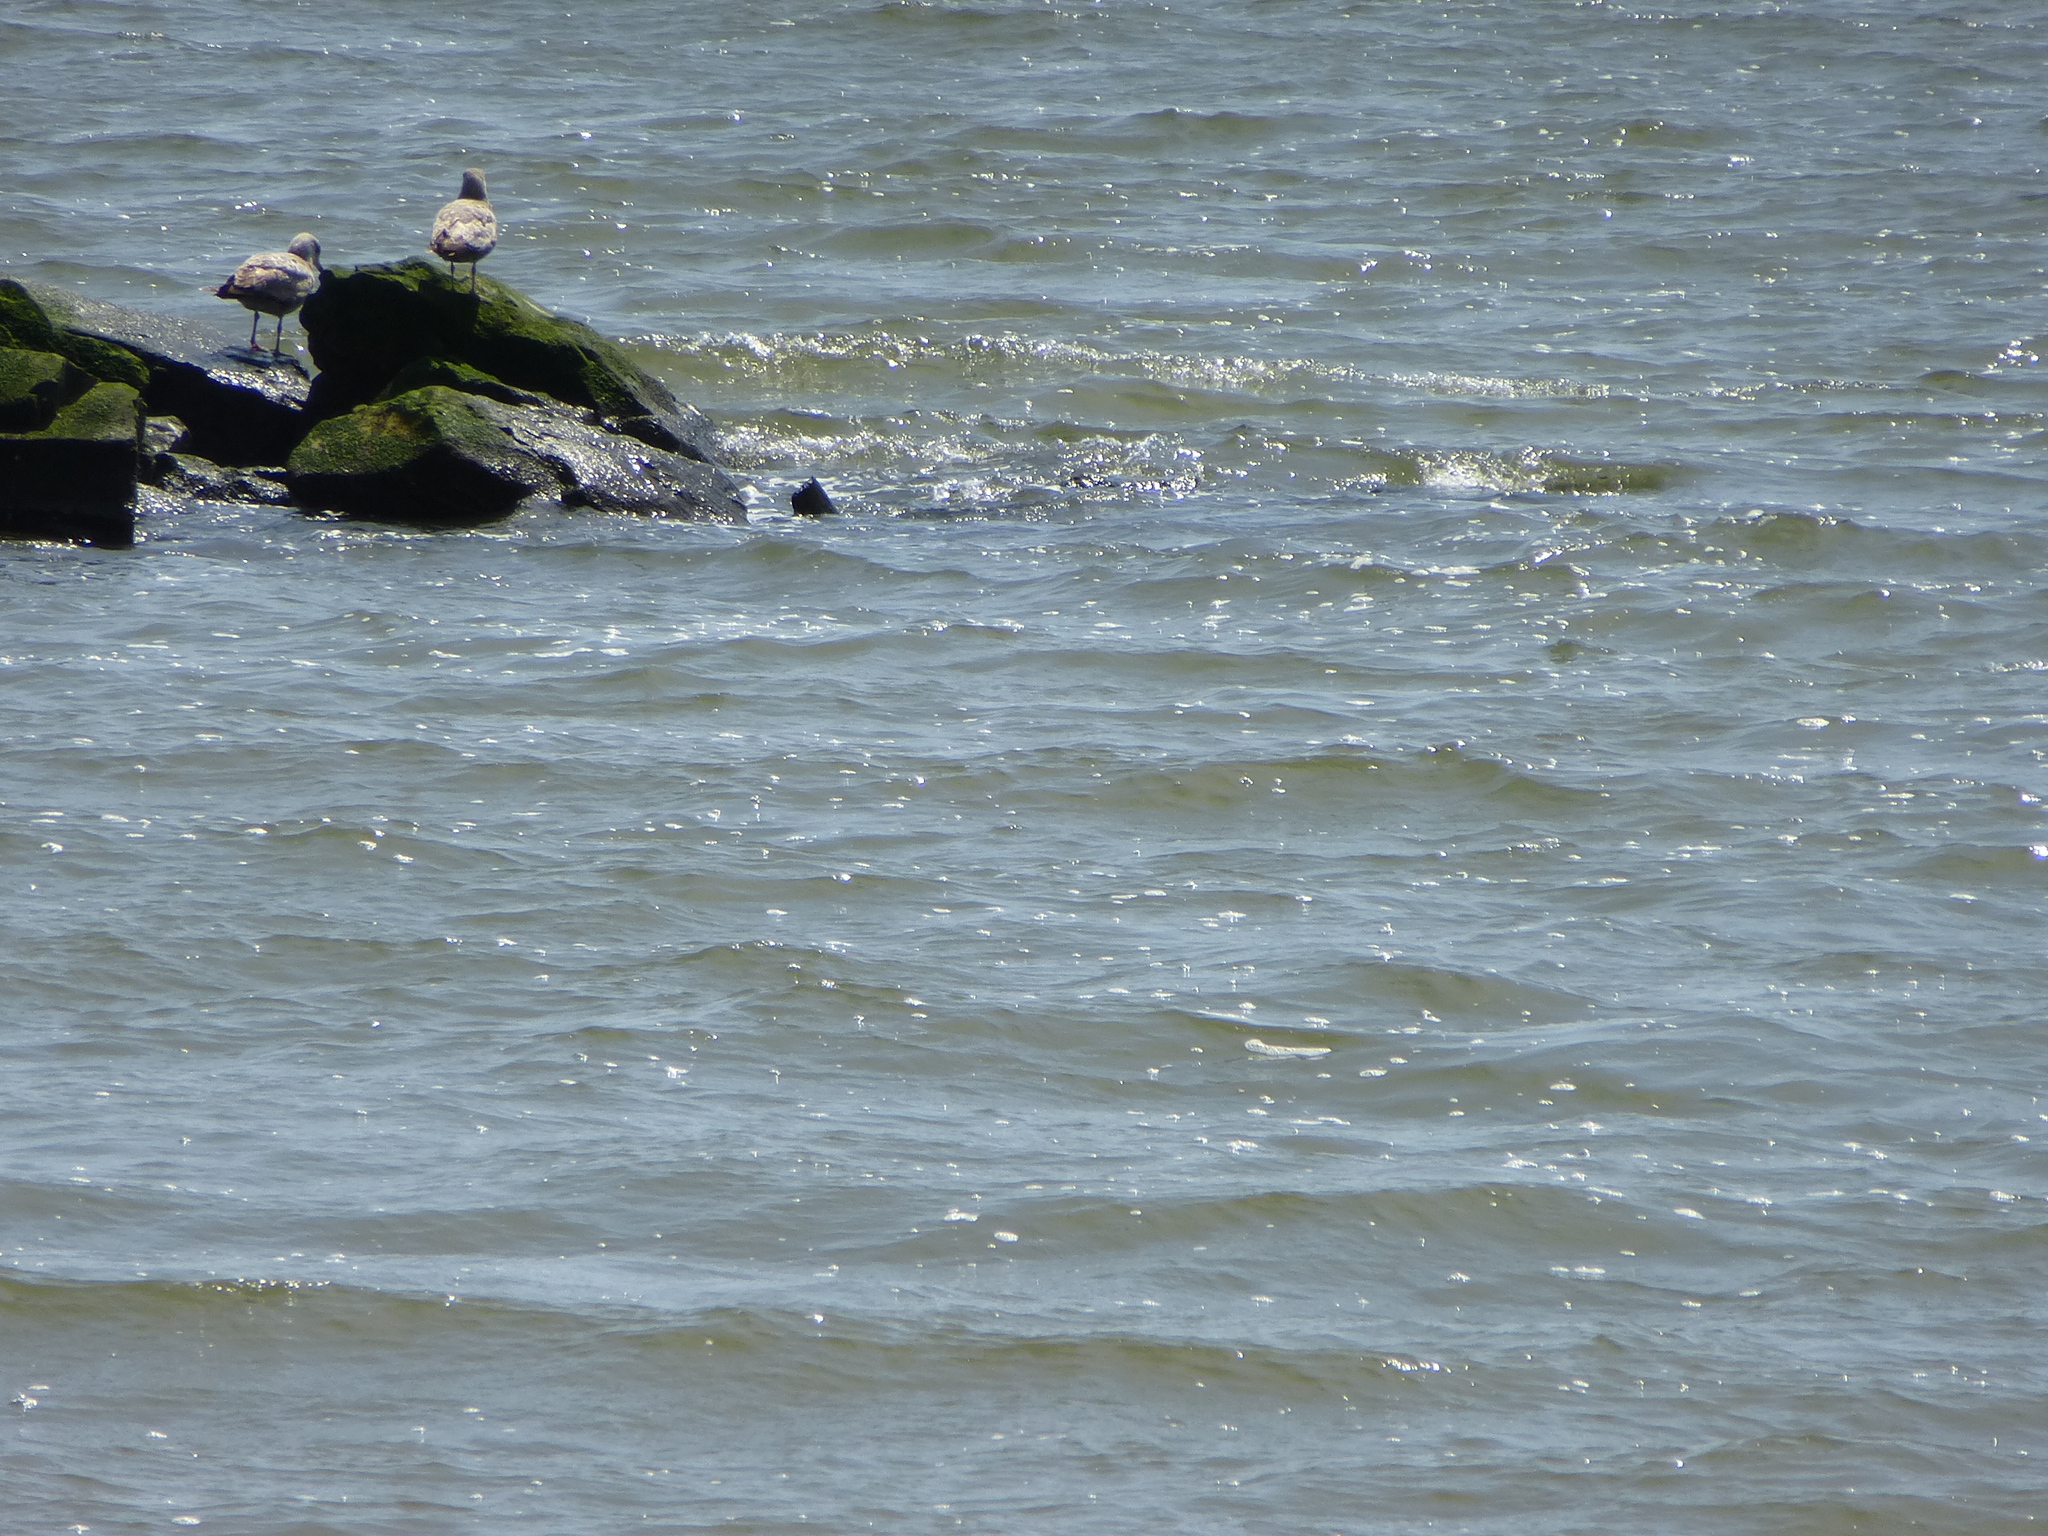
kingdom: Animalia
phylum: Chordata
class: Aves
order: Charadriiformes
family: Laridae
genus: Larus
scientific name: Larus argentatus
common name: Herring gull
